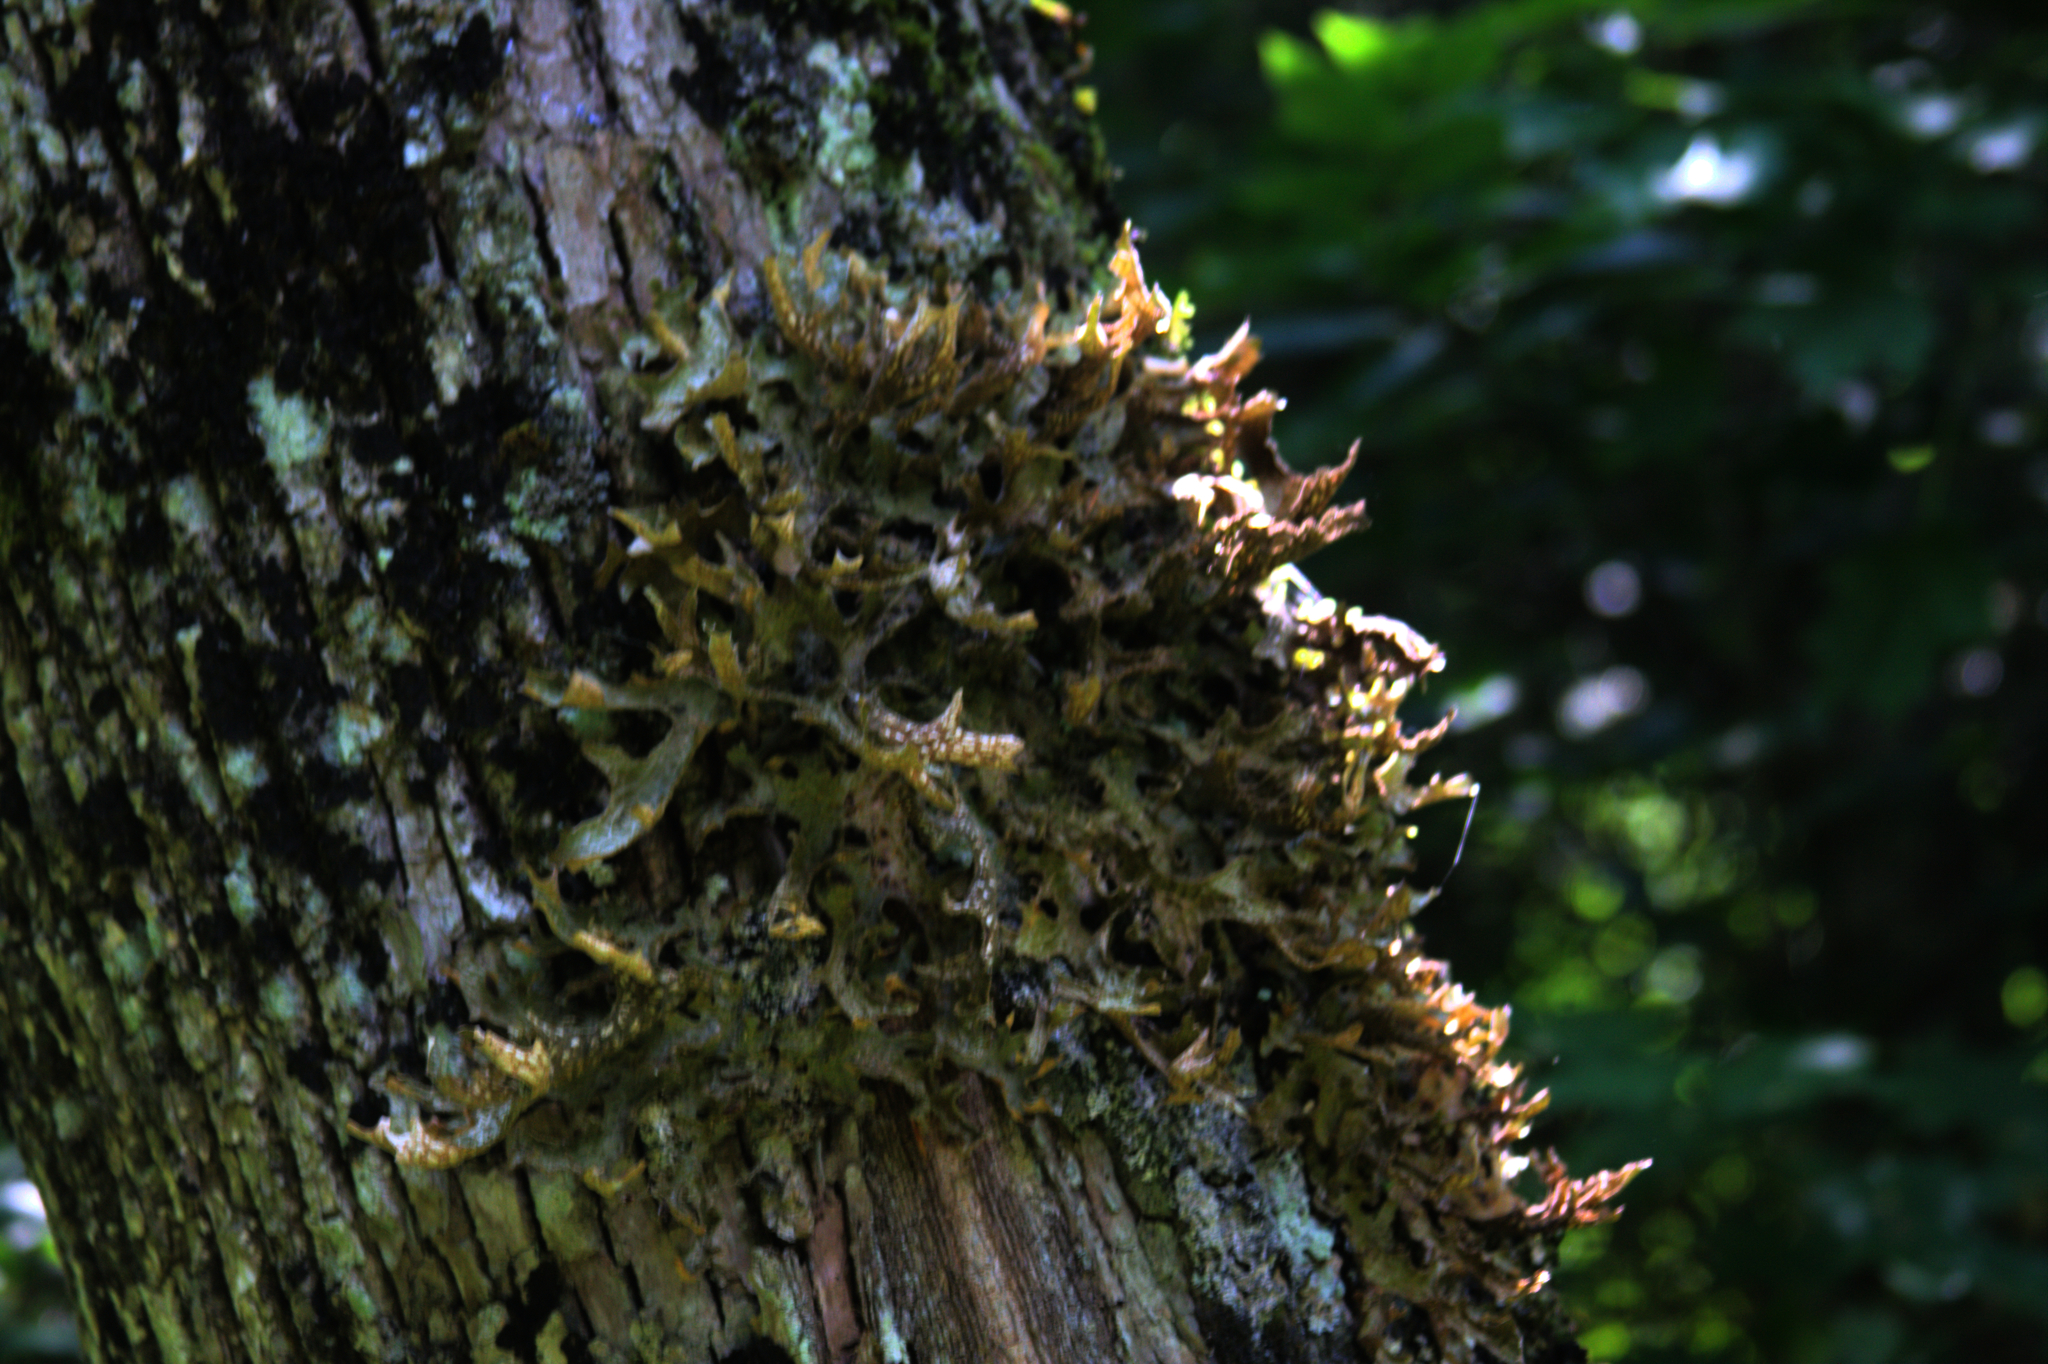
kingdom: Fungi
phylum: Ascomycota
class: Lecanoromycetes
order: Peltigerales
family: Lobariaceae
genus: Lobaria
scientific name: Lobaria pulmonaria
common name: Lungwort
